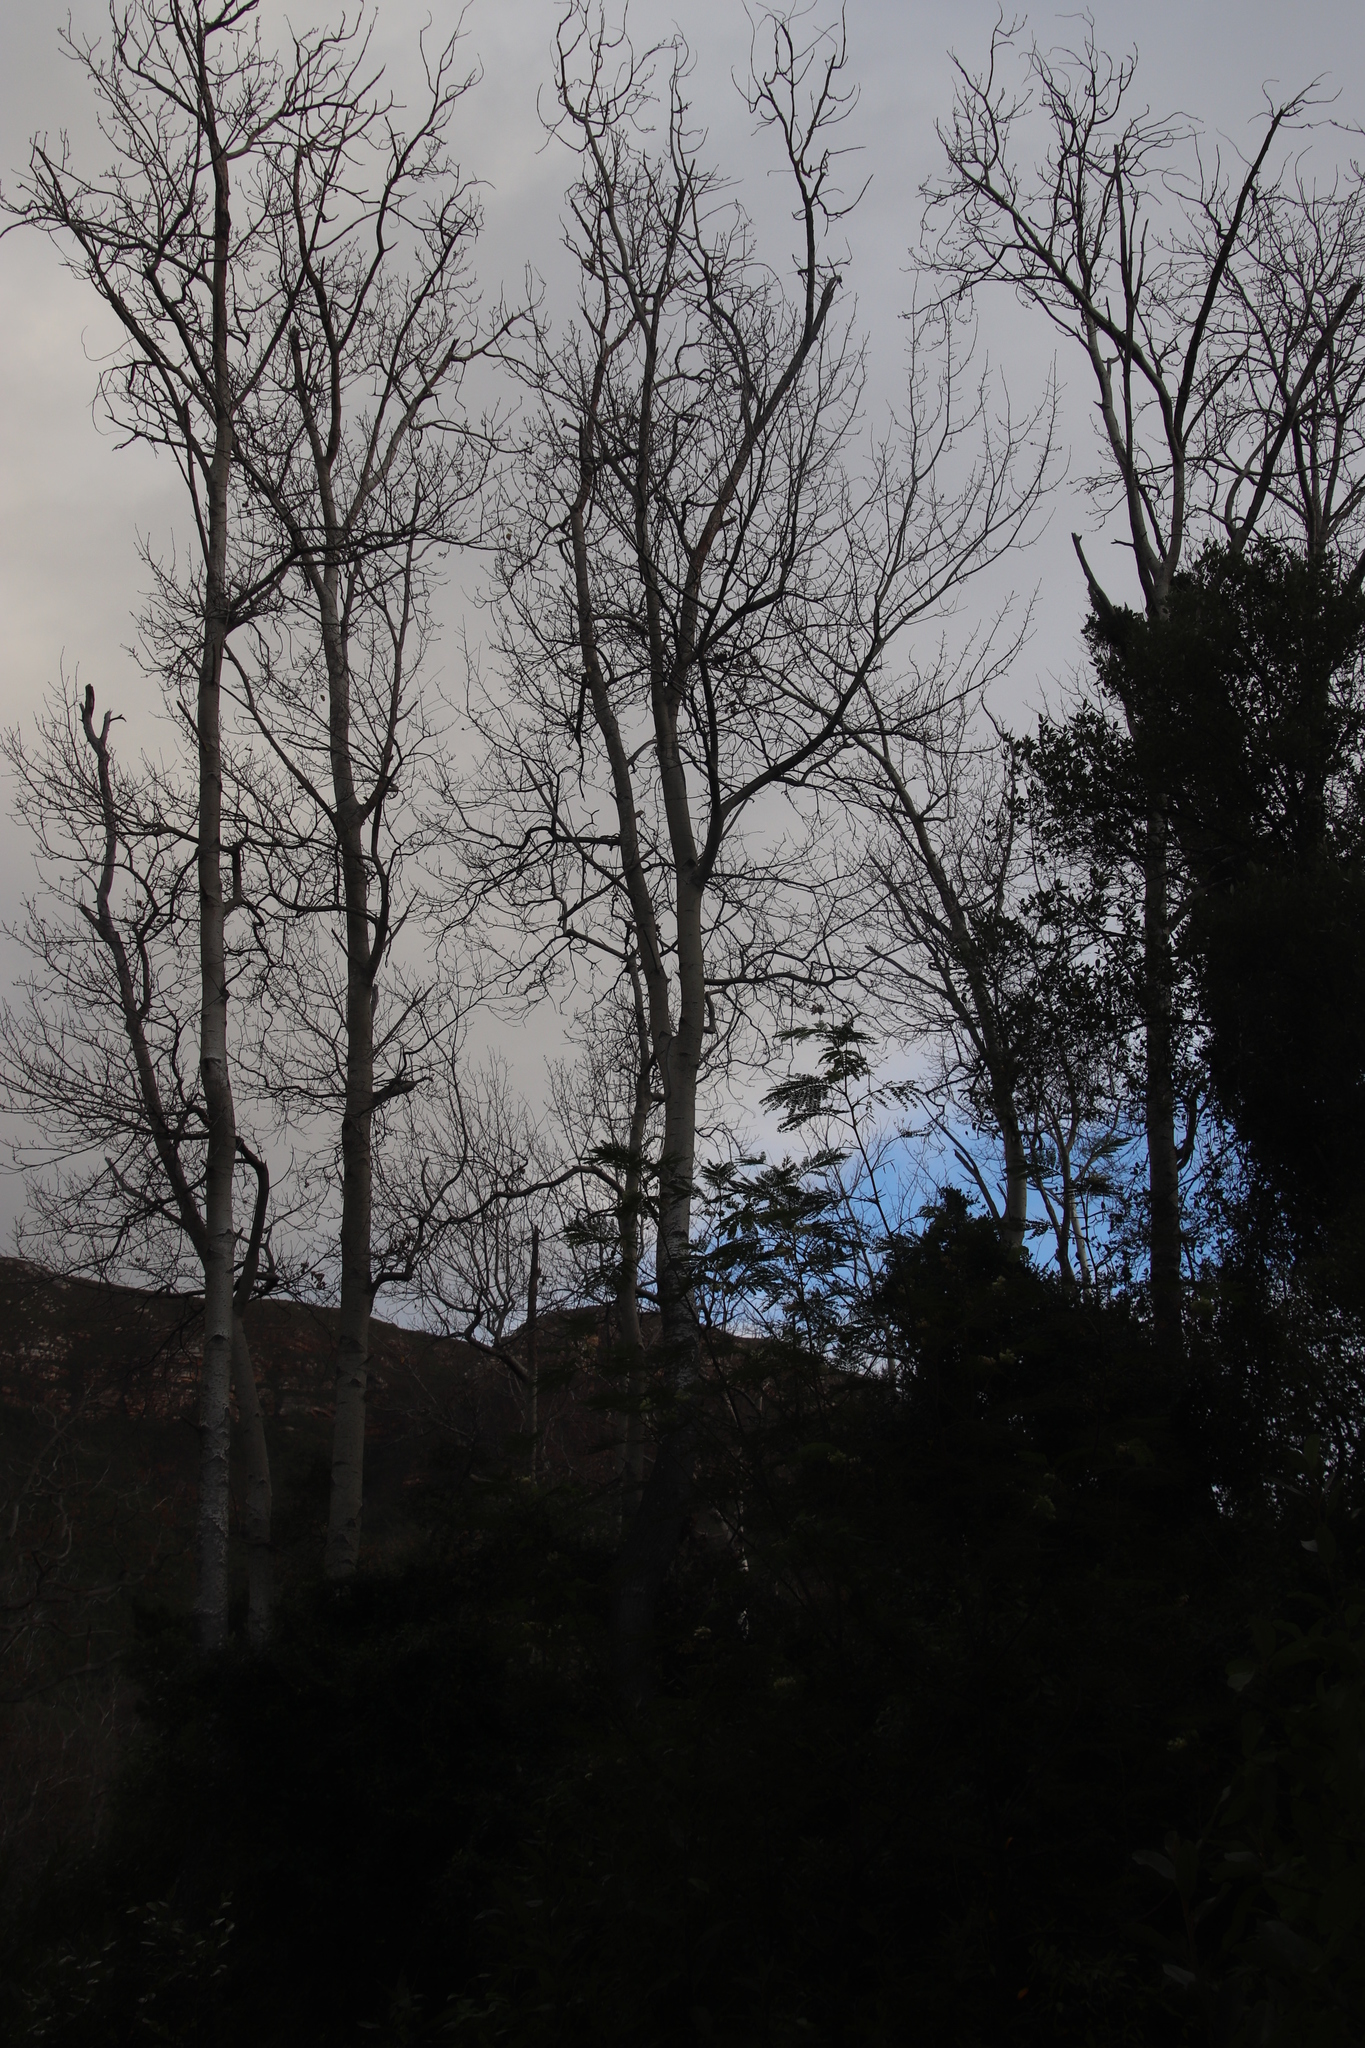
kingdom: Plantae
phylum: Tracheophyta
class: Magnoliopsida
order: Malpighiales
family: Salicaceae
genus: Populus
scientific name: Populus canescens
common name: Gray poplar
